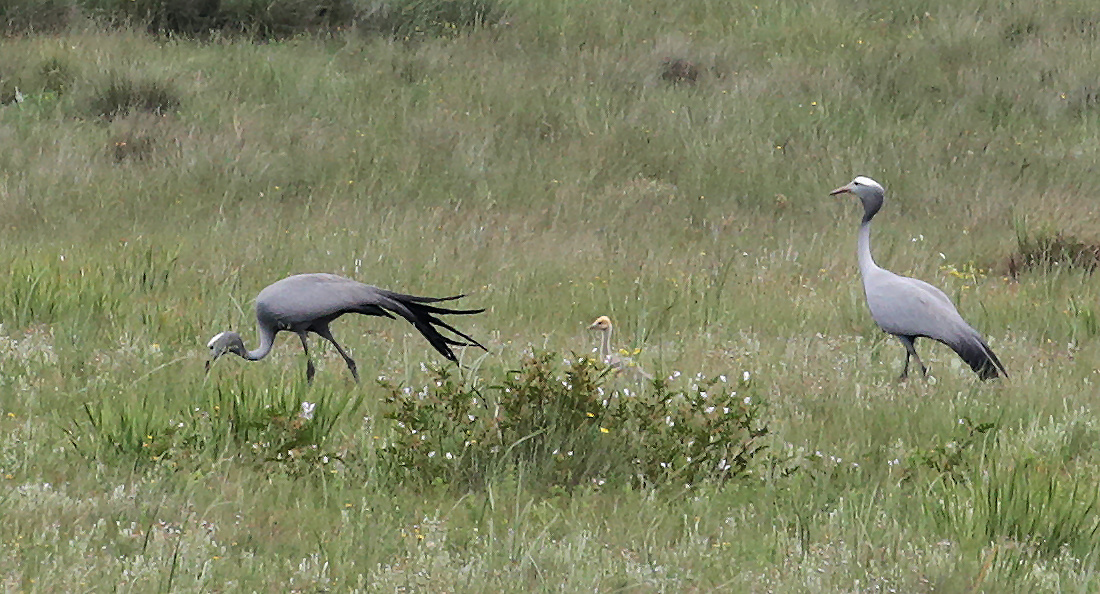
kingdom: Animalia
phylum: Chordata
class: Aves
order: Gruiformes
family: Gruidae
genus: Anthropoides
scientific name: Anthropoides paradiseus
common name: Blue crane
